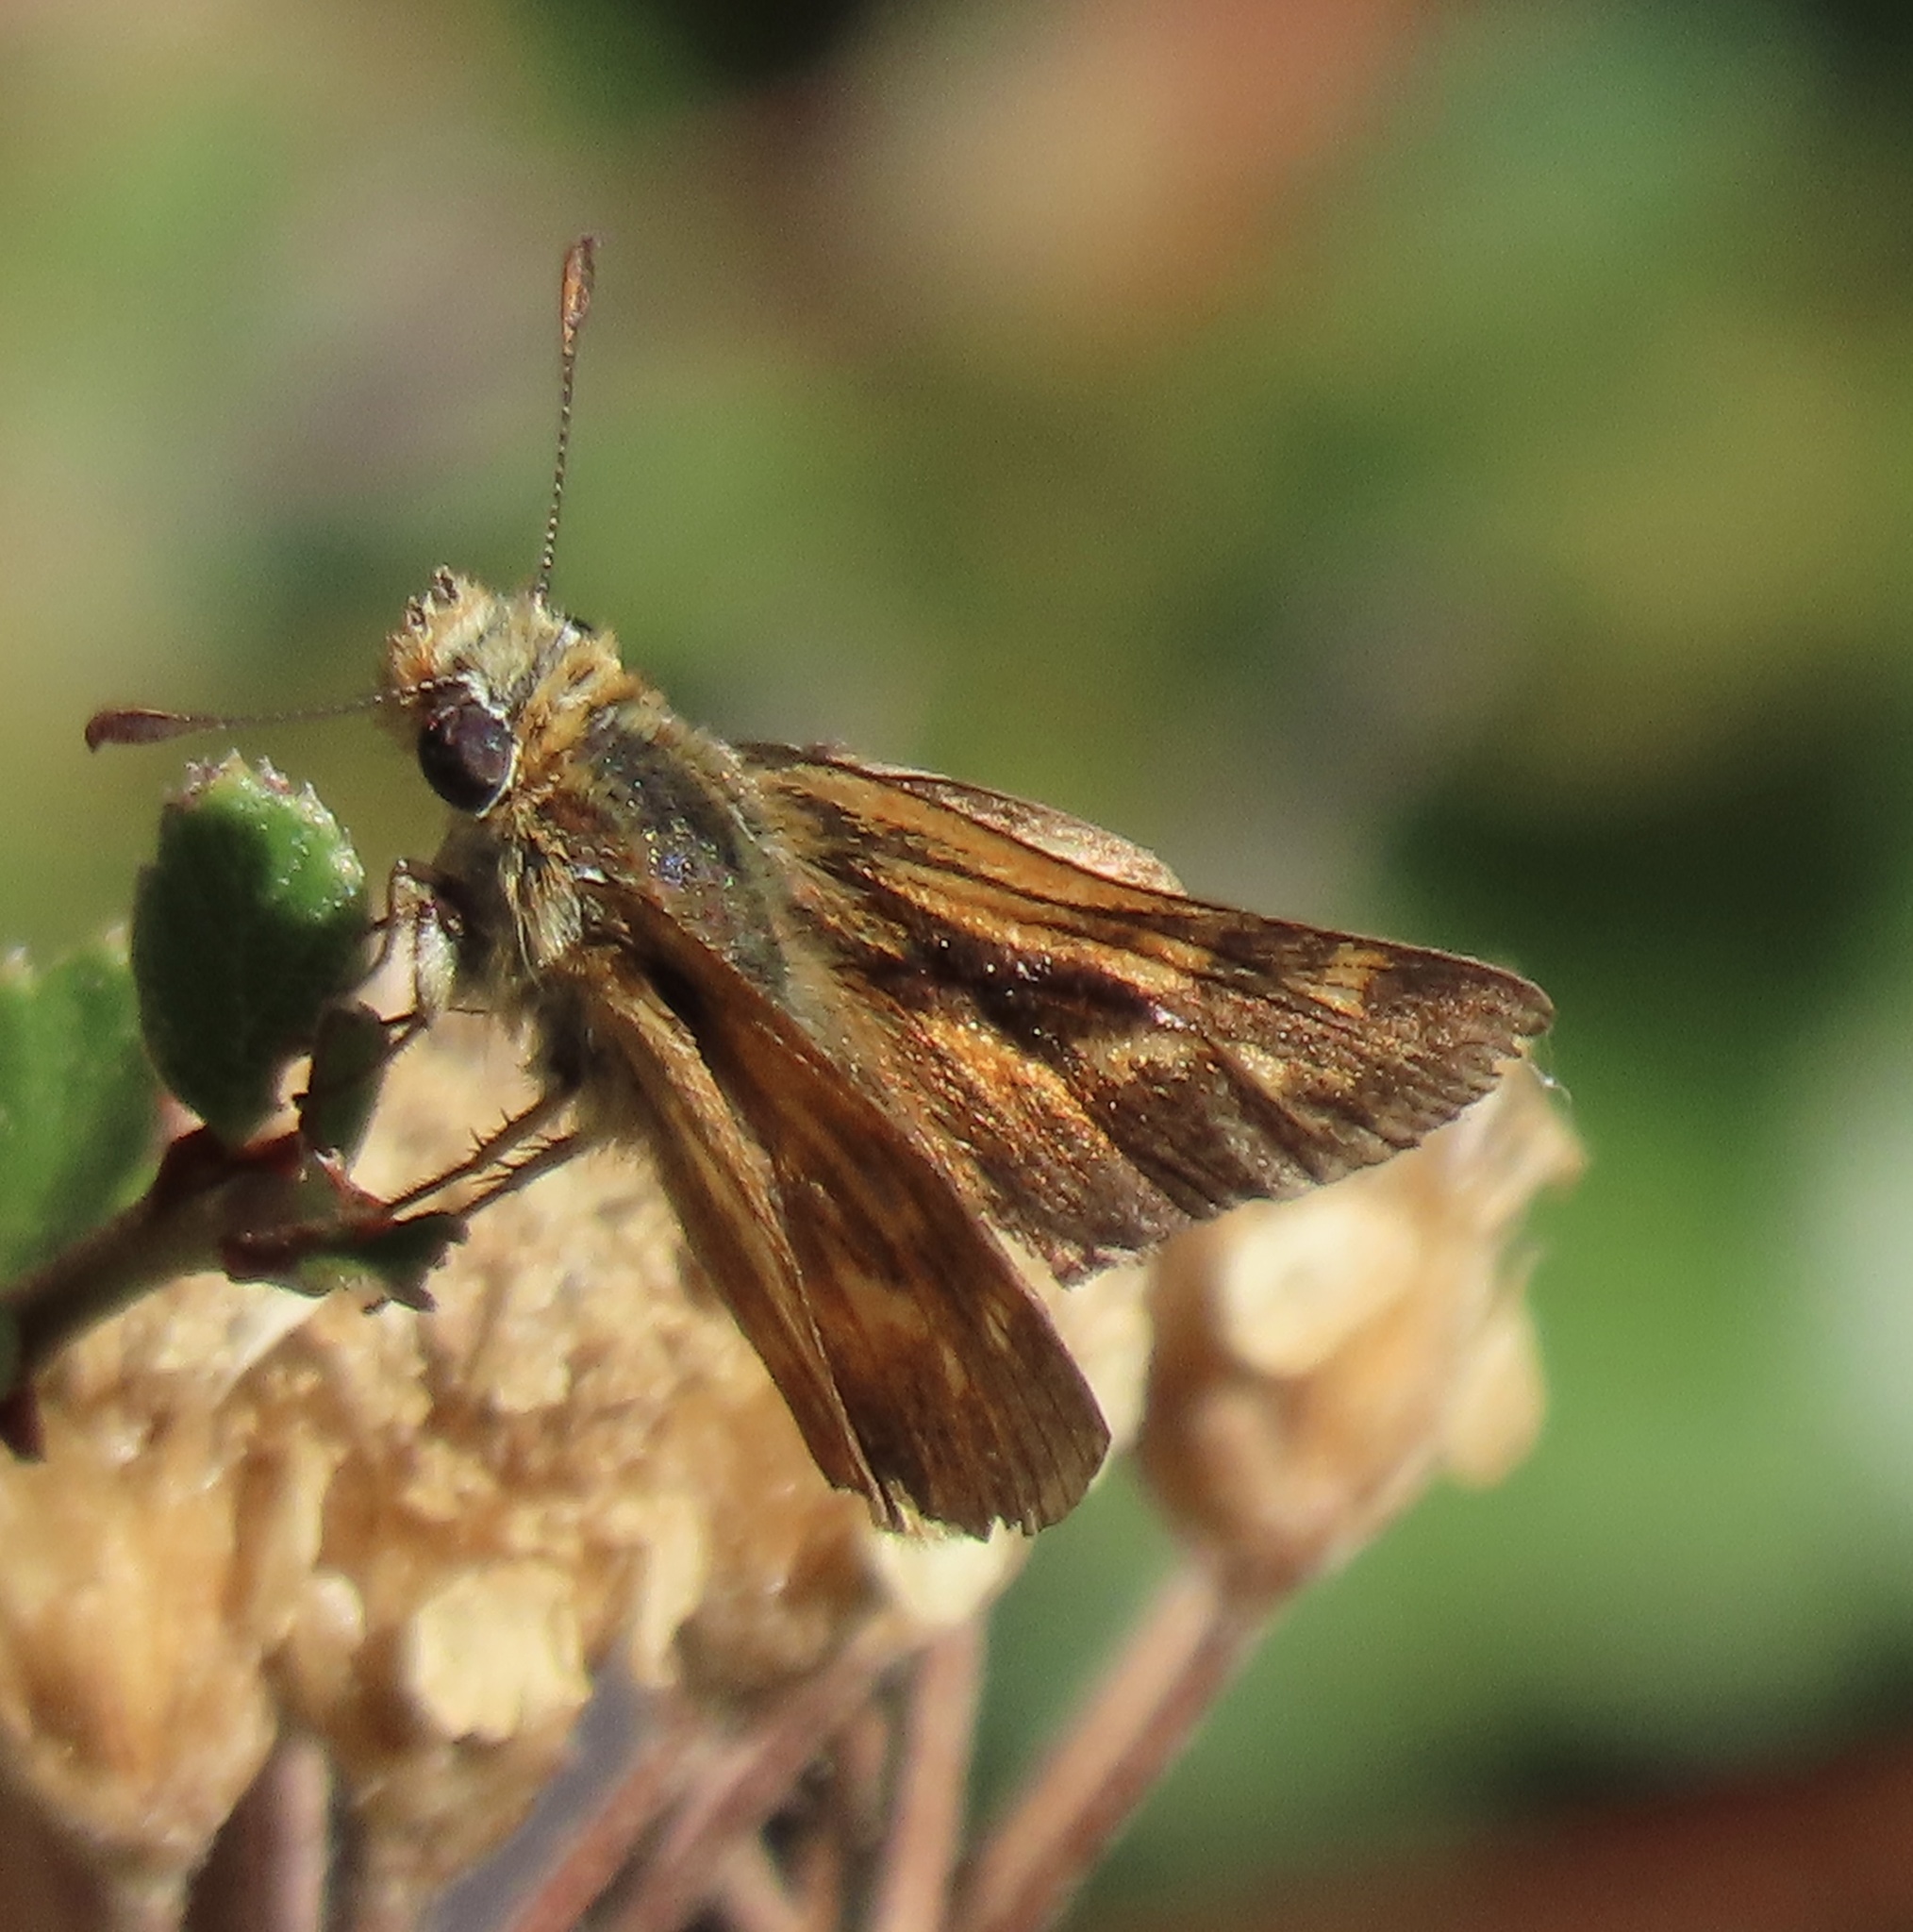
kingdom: Animalia
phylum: Arthropoda
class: Insecta
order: Lepidoptera
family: Hesperiidae
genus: Ochlodes
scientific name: Ochlodes agricola
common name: Rural skipper
